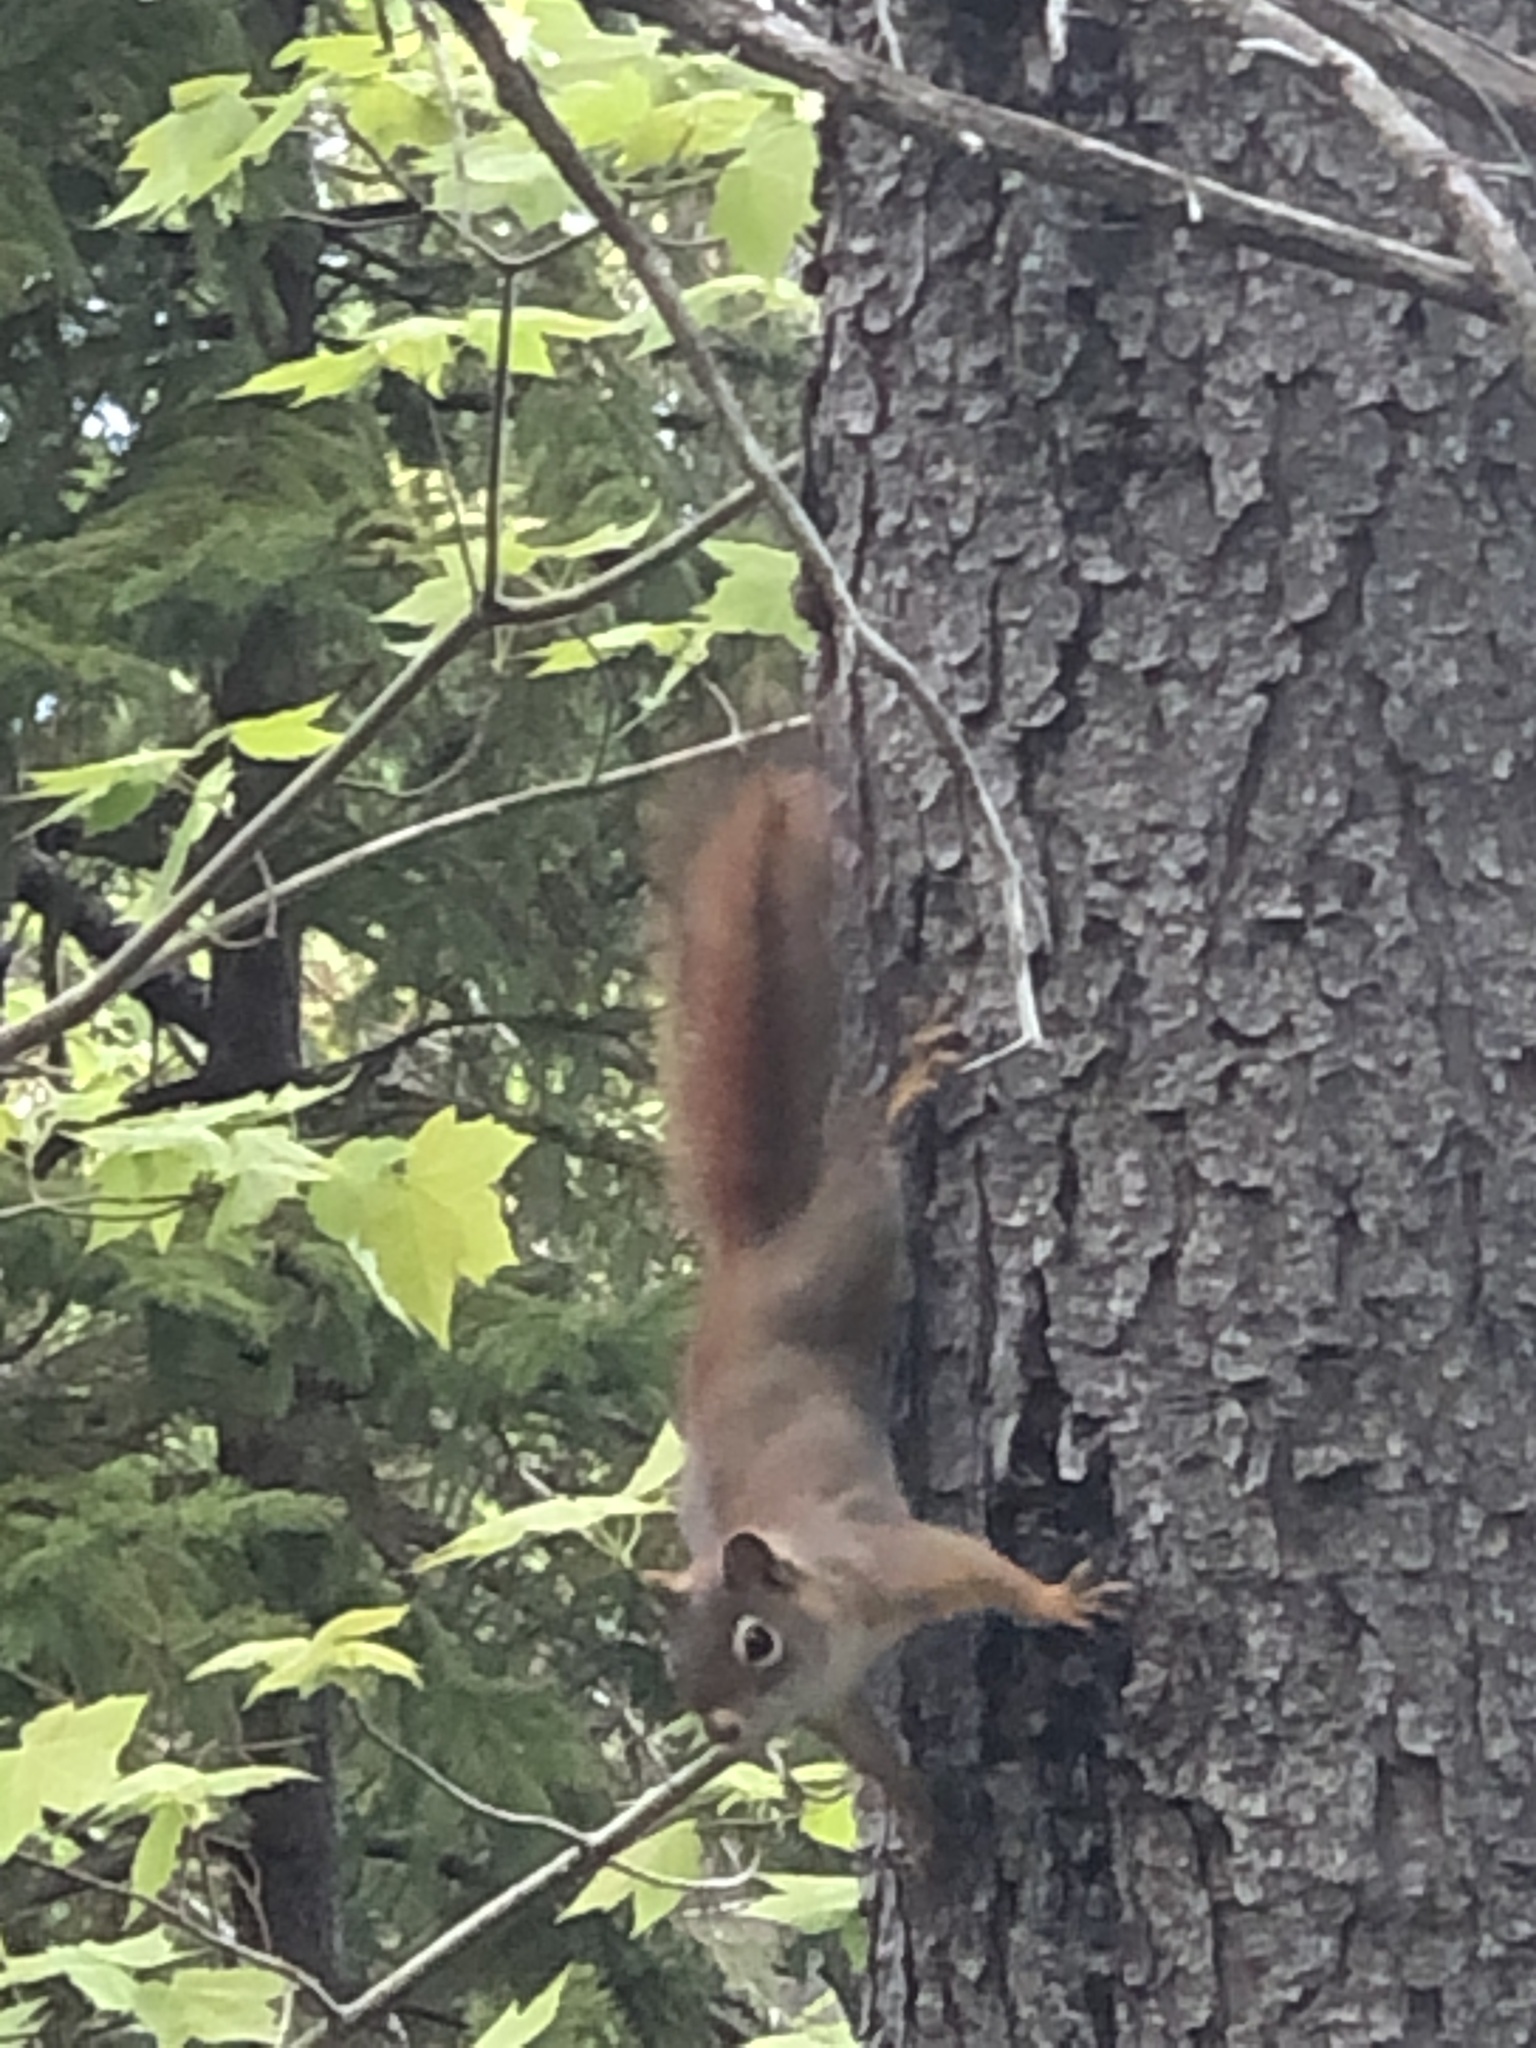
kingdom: Animalia
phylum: Chordata
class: Mammalia
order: Rodentia
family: Sciuridae
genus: Tamiasciurus
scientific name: Tamiasciurus hudsonicus
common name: Red squirrel
